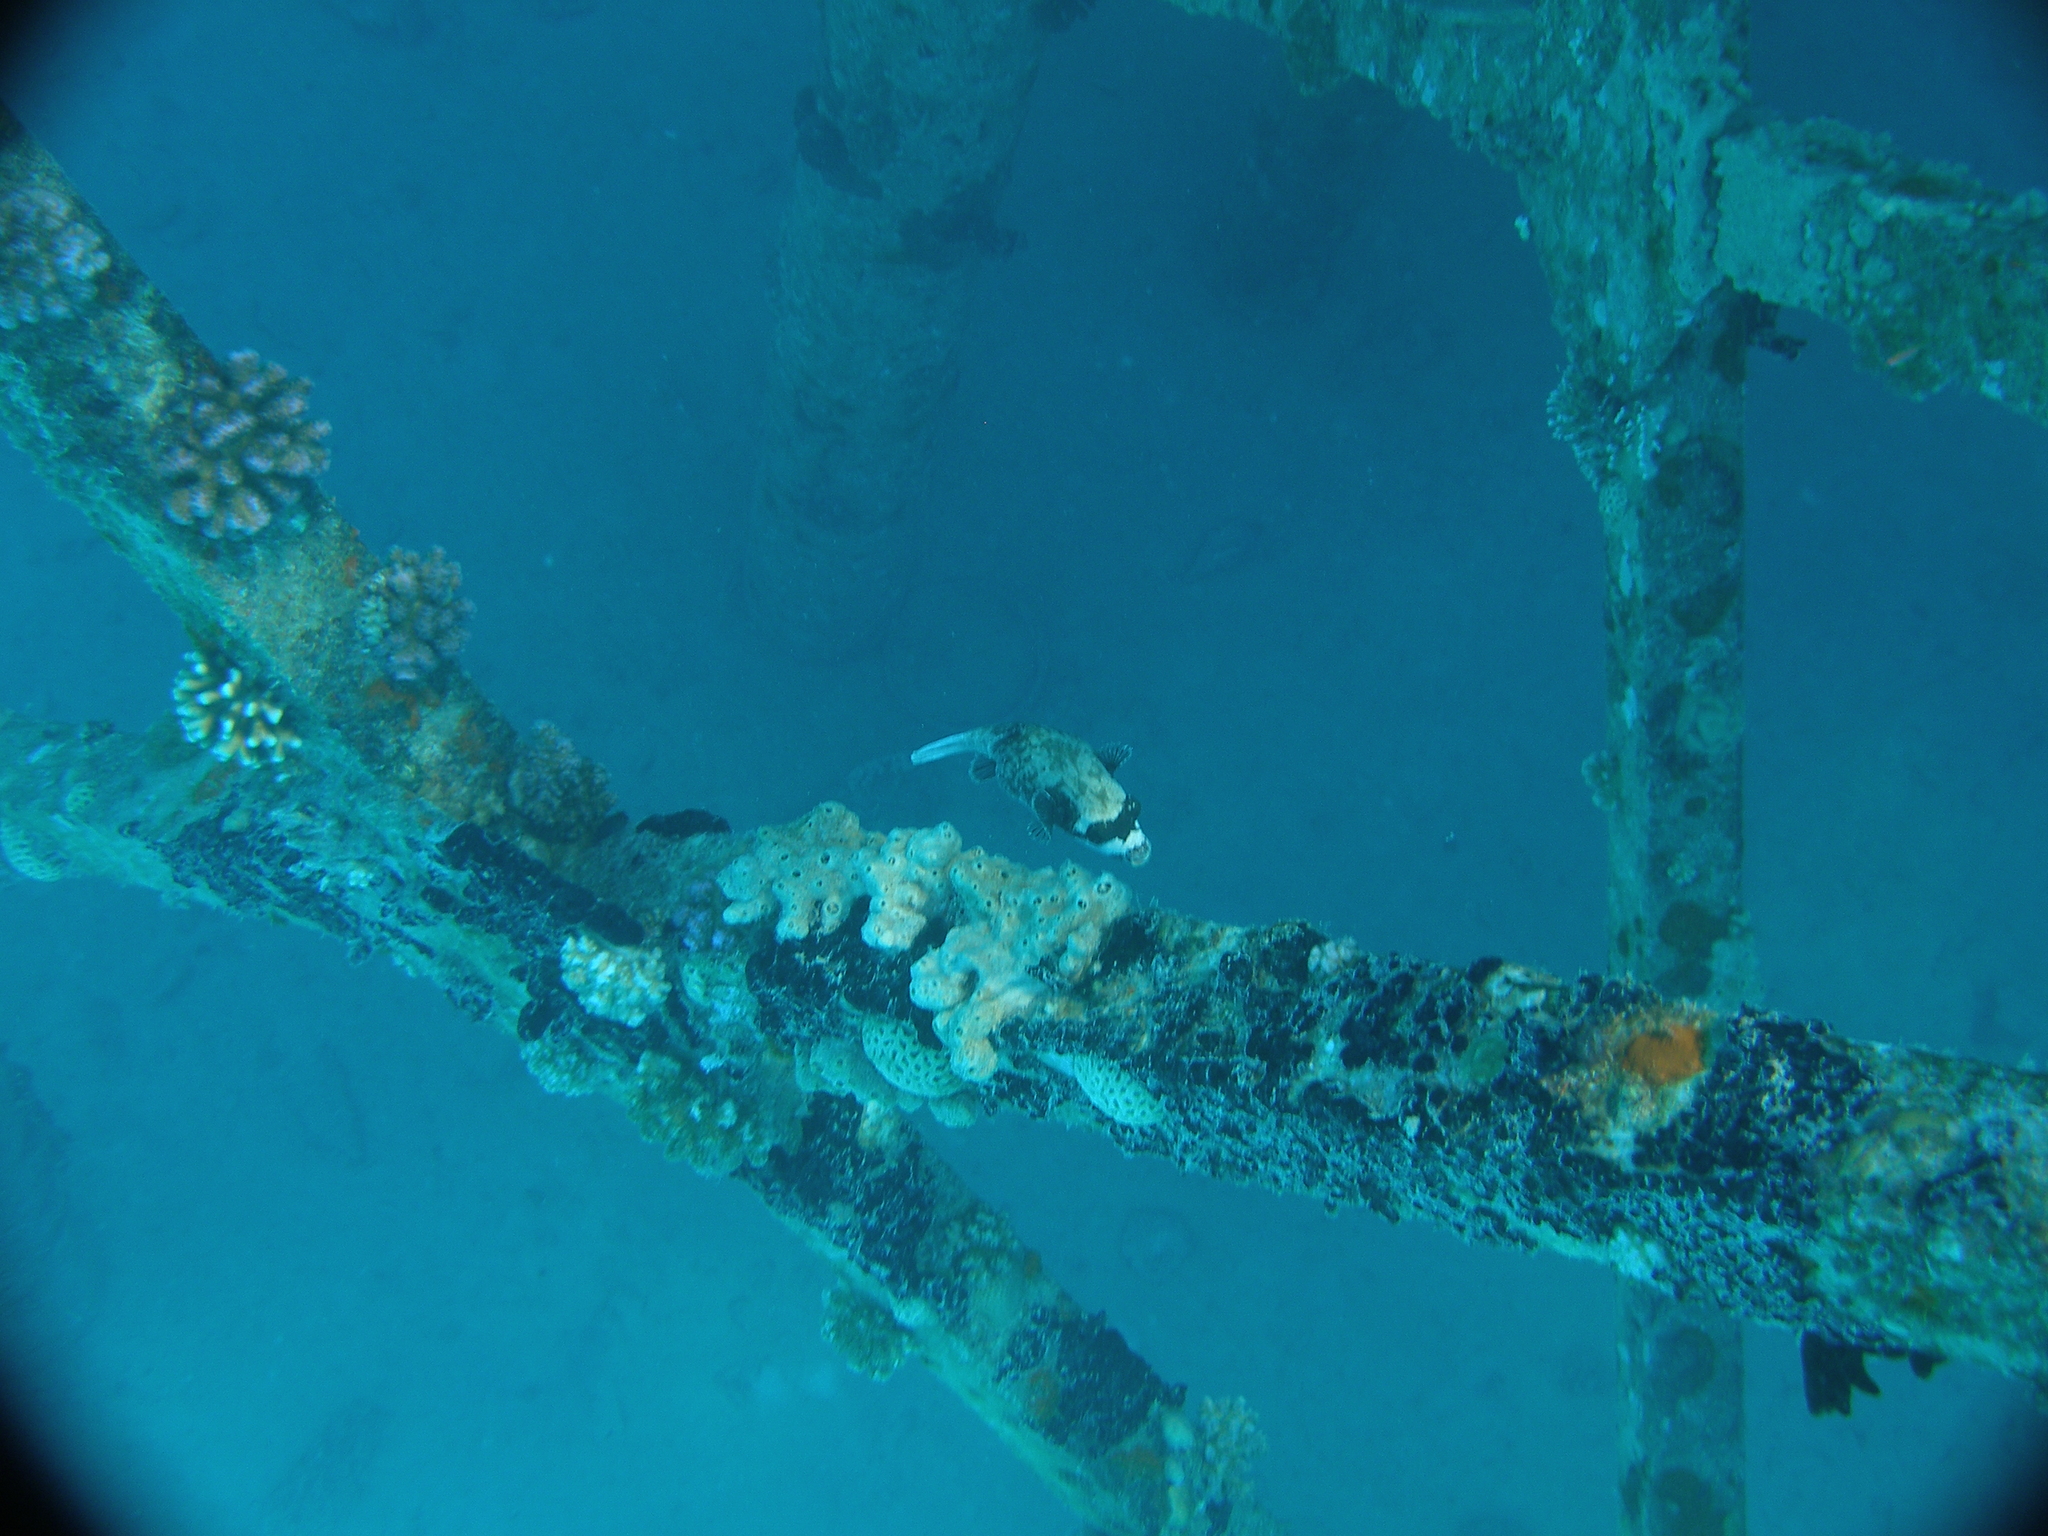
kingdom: Animalia
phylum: Chordata
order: Tetraodontiformes
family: Tetraodontidae
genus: Arothron
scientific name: Arothron diadematus
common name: Masked puffer
